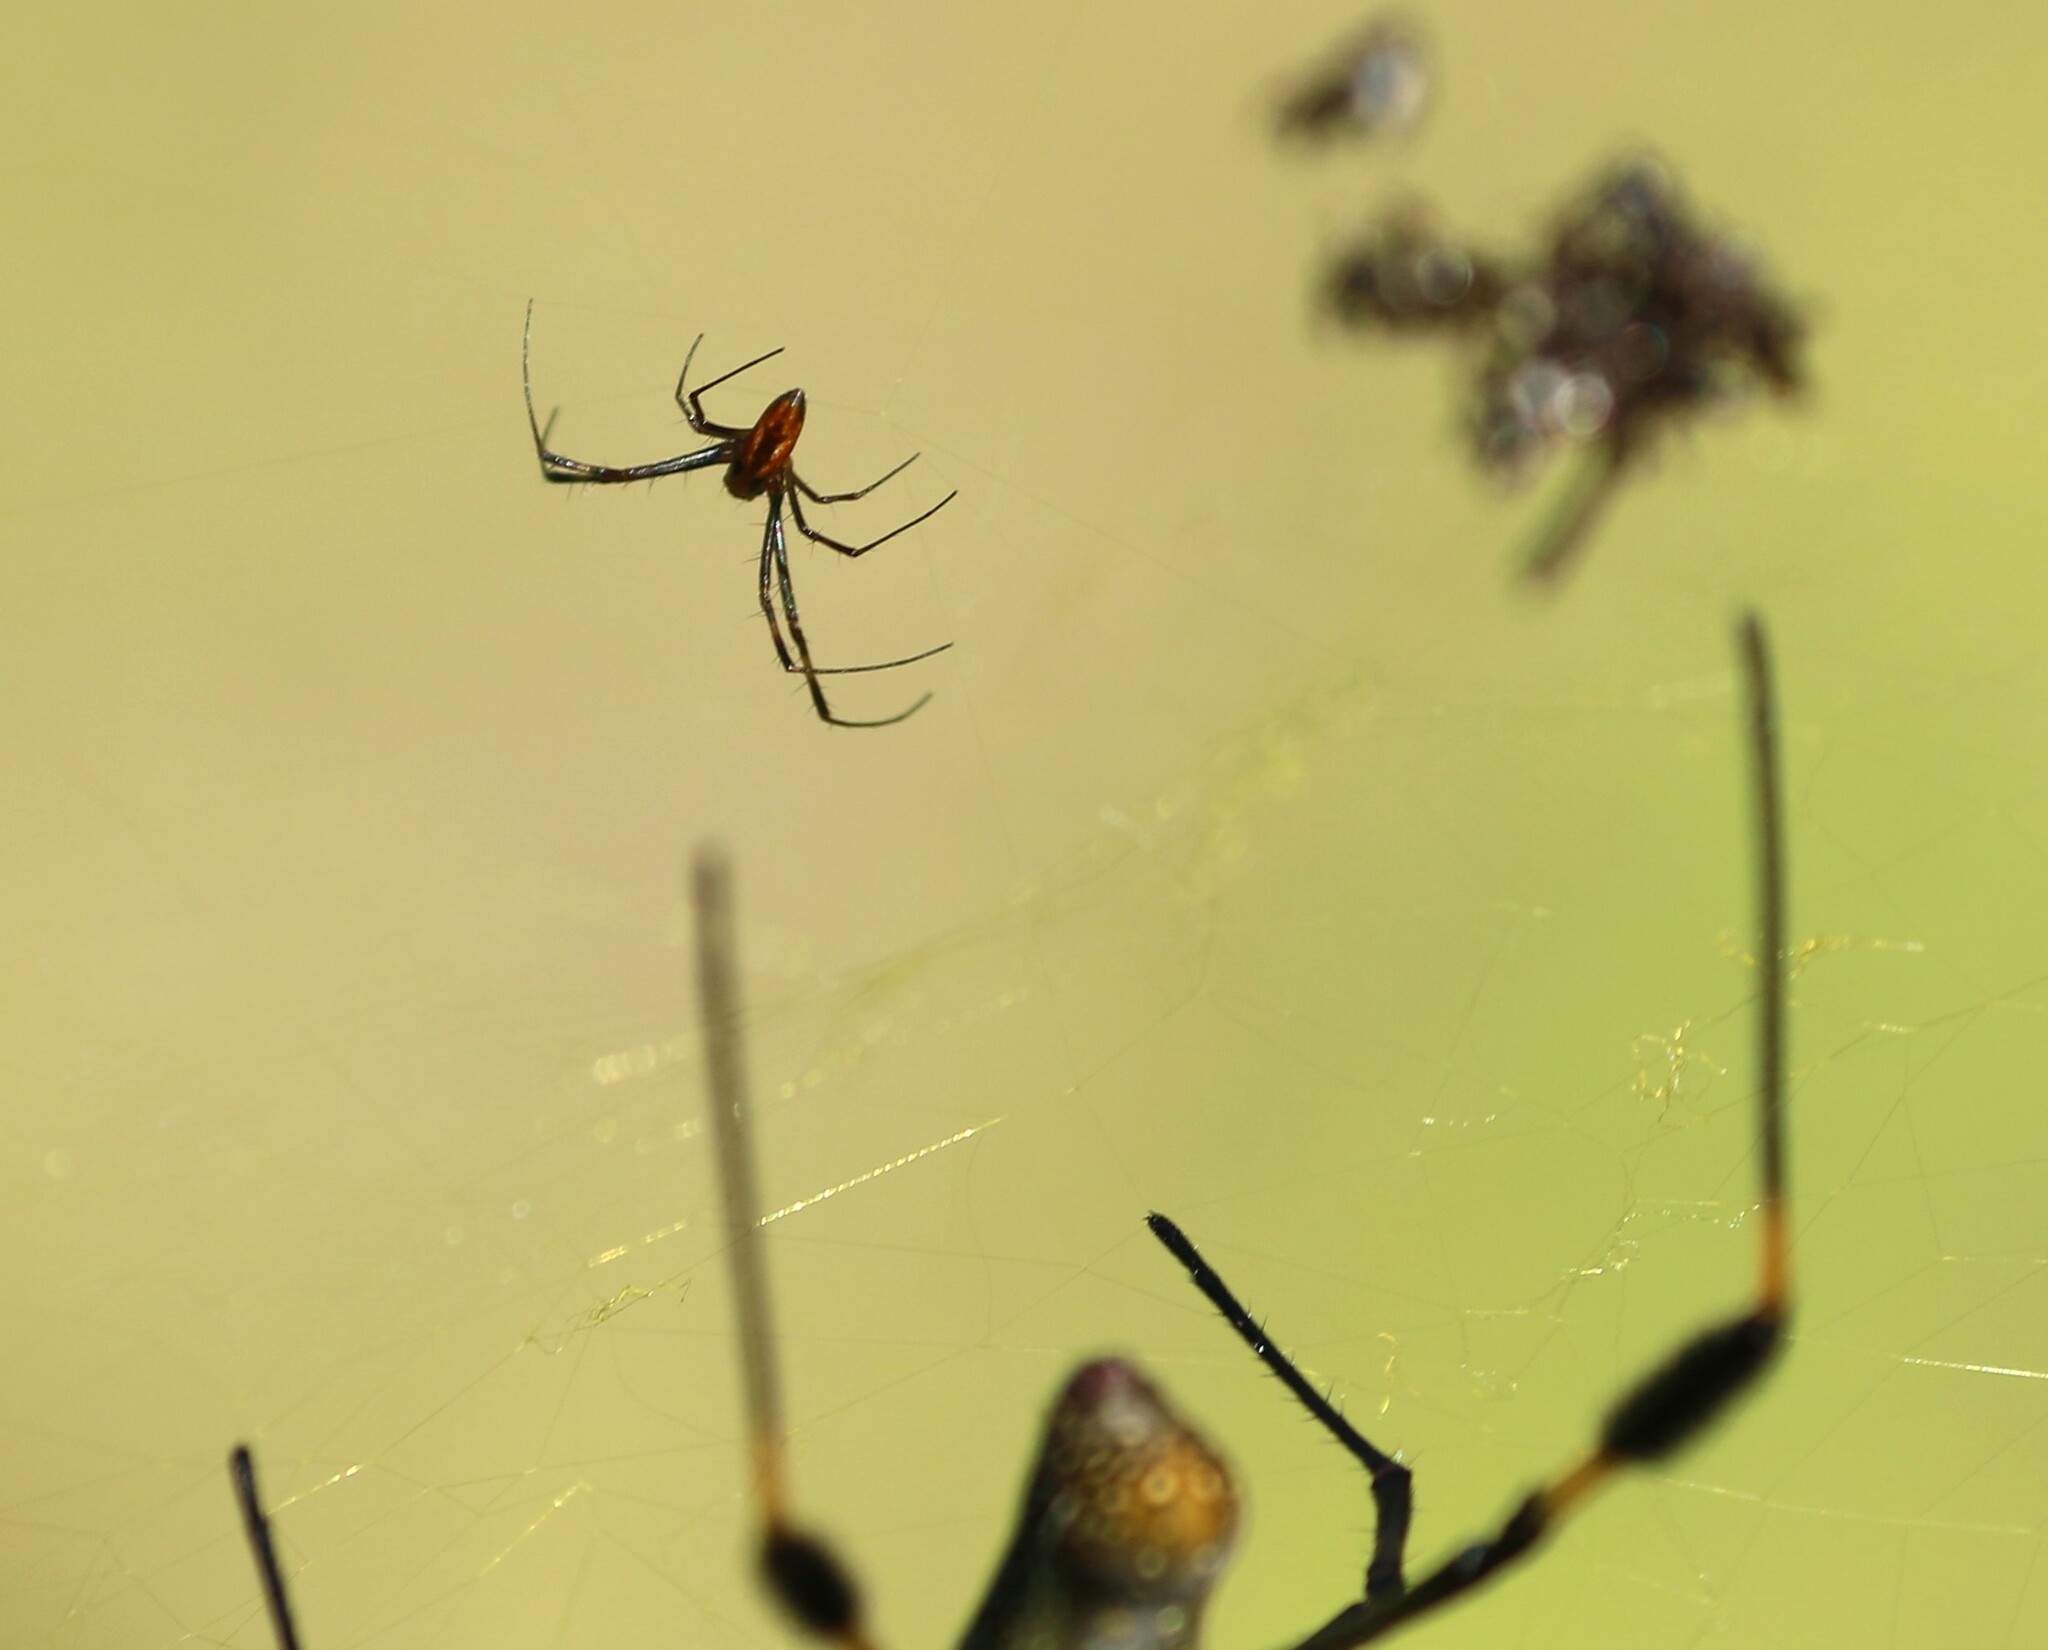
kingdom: Animalia
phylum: Arthropoda
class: Arachnida
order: Araneae
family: Araneidae
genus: Trichonephila
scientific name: Trichonephila clavipes
